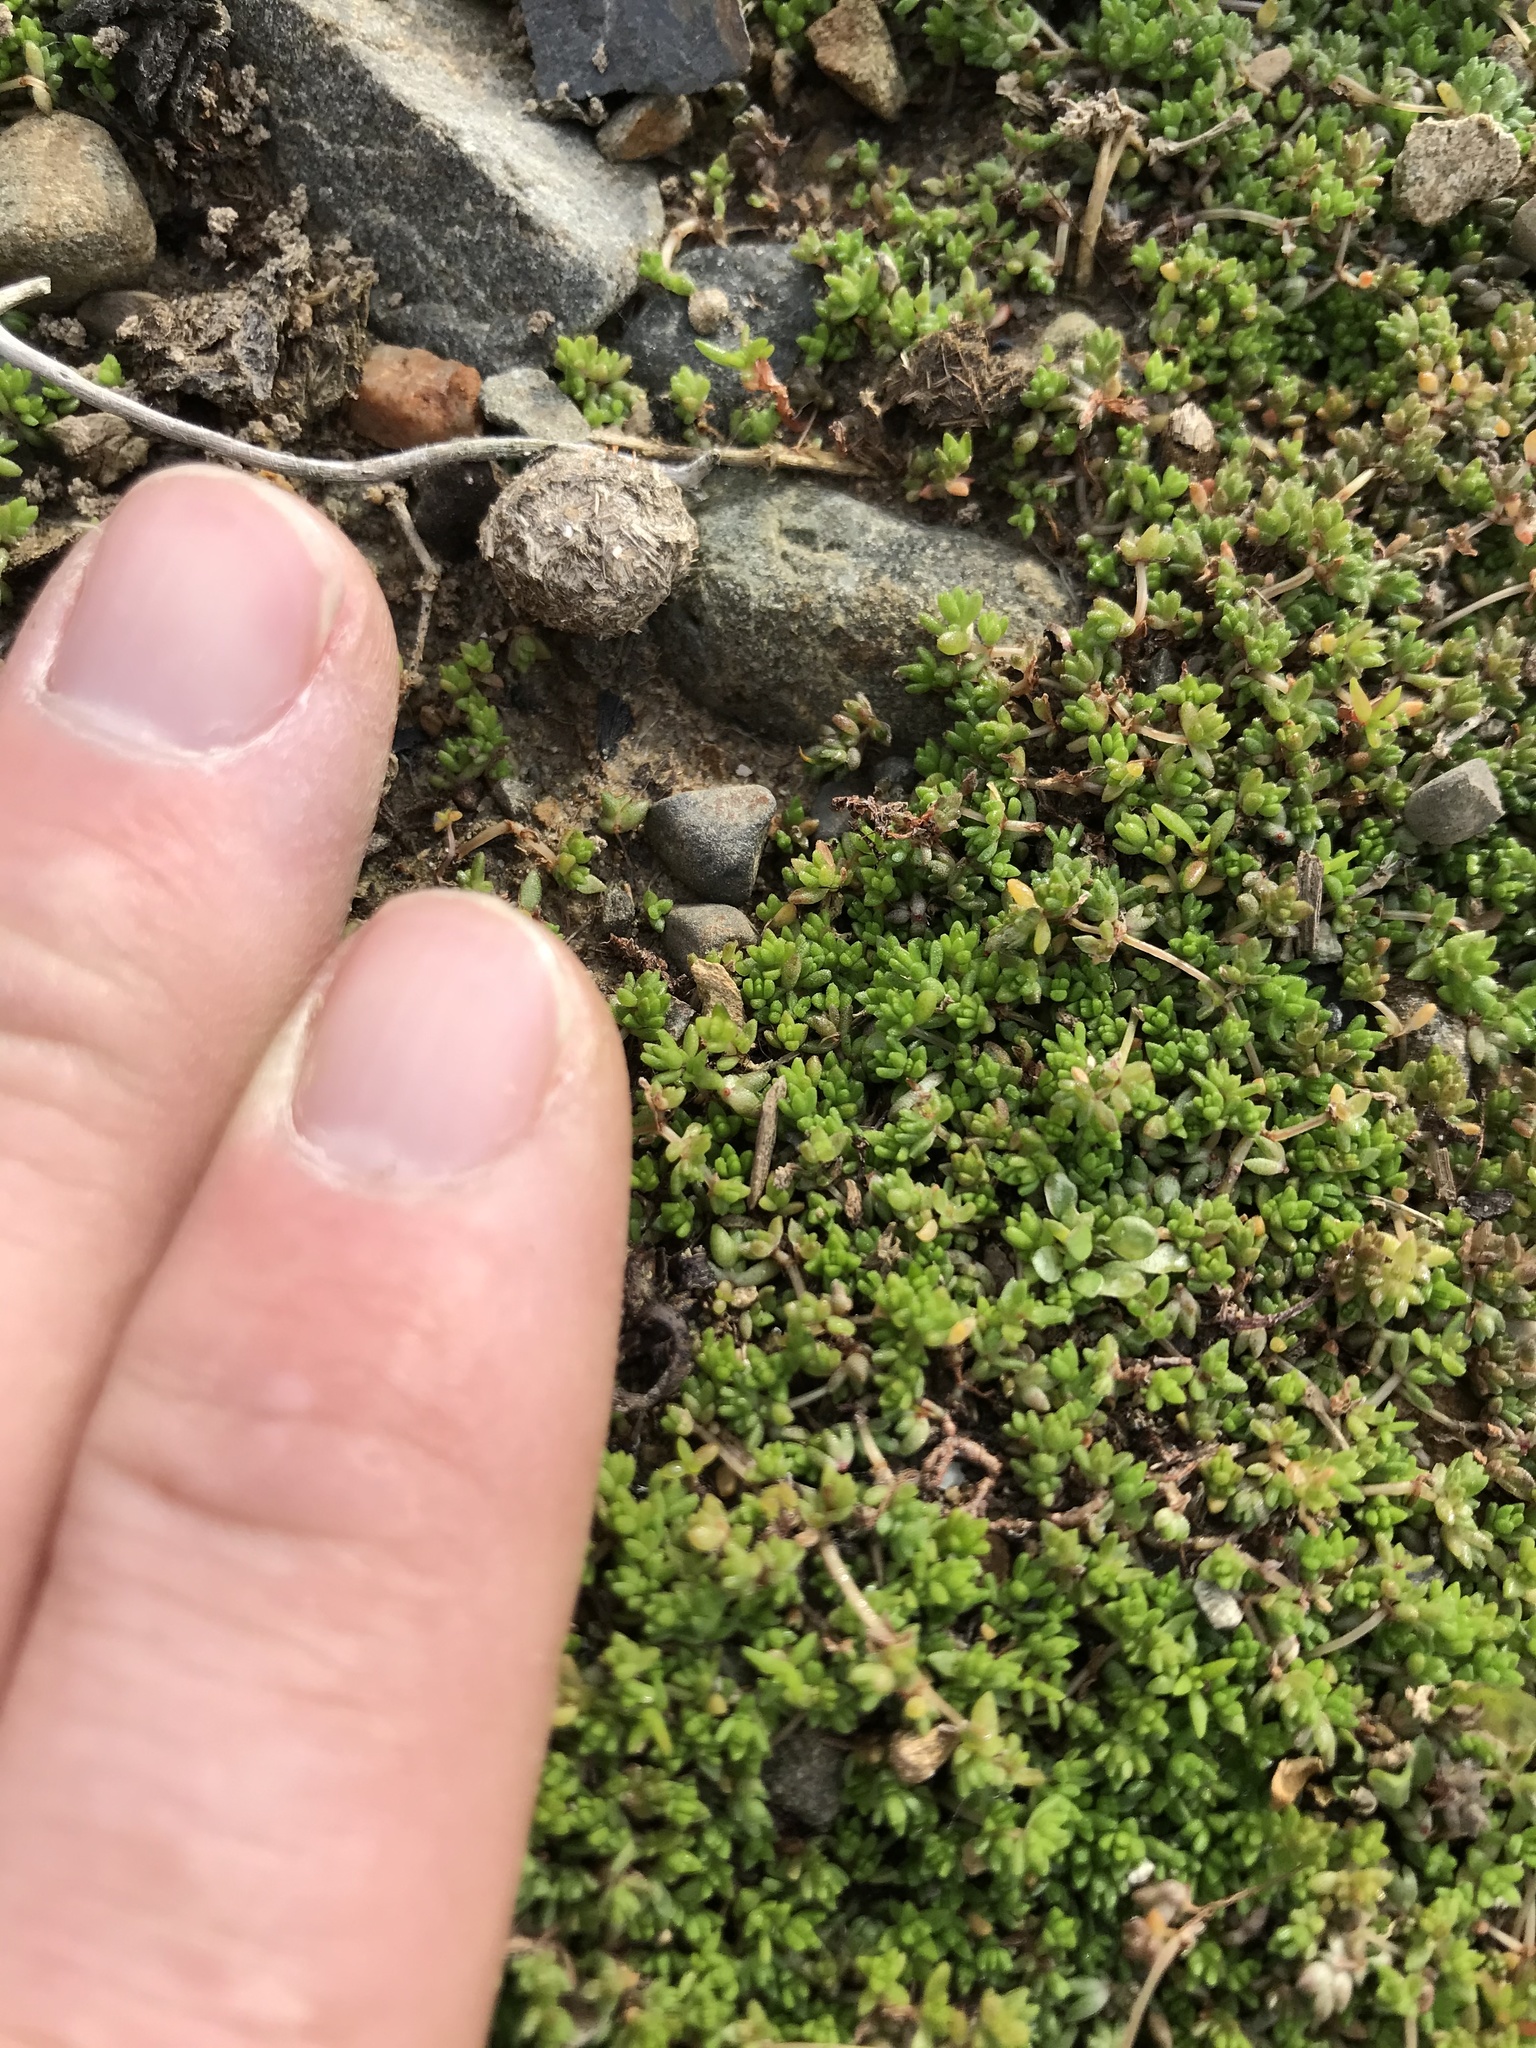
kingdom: Plantae
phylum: Tracheophyta
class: Magnoliopsida
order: Saxifragales
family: Crassulaceae
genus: Crassula
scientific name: Crassula mataikona
